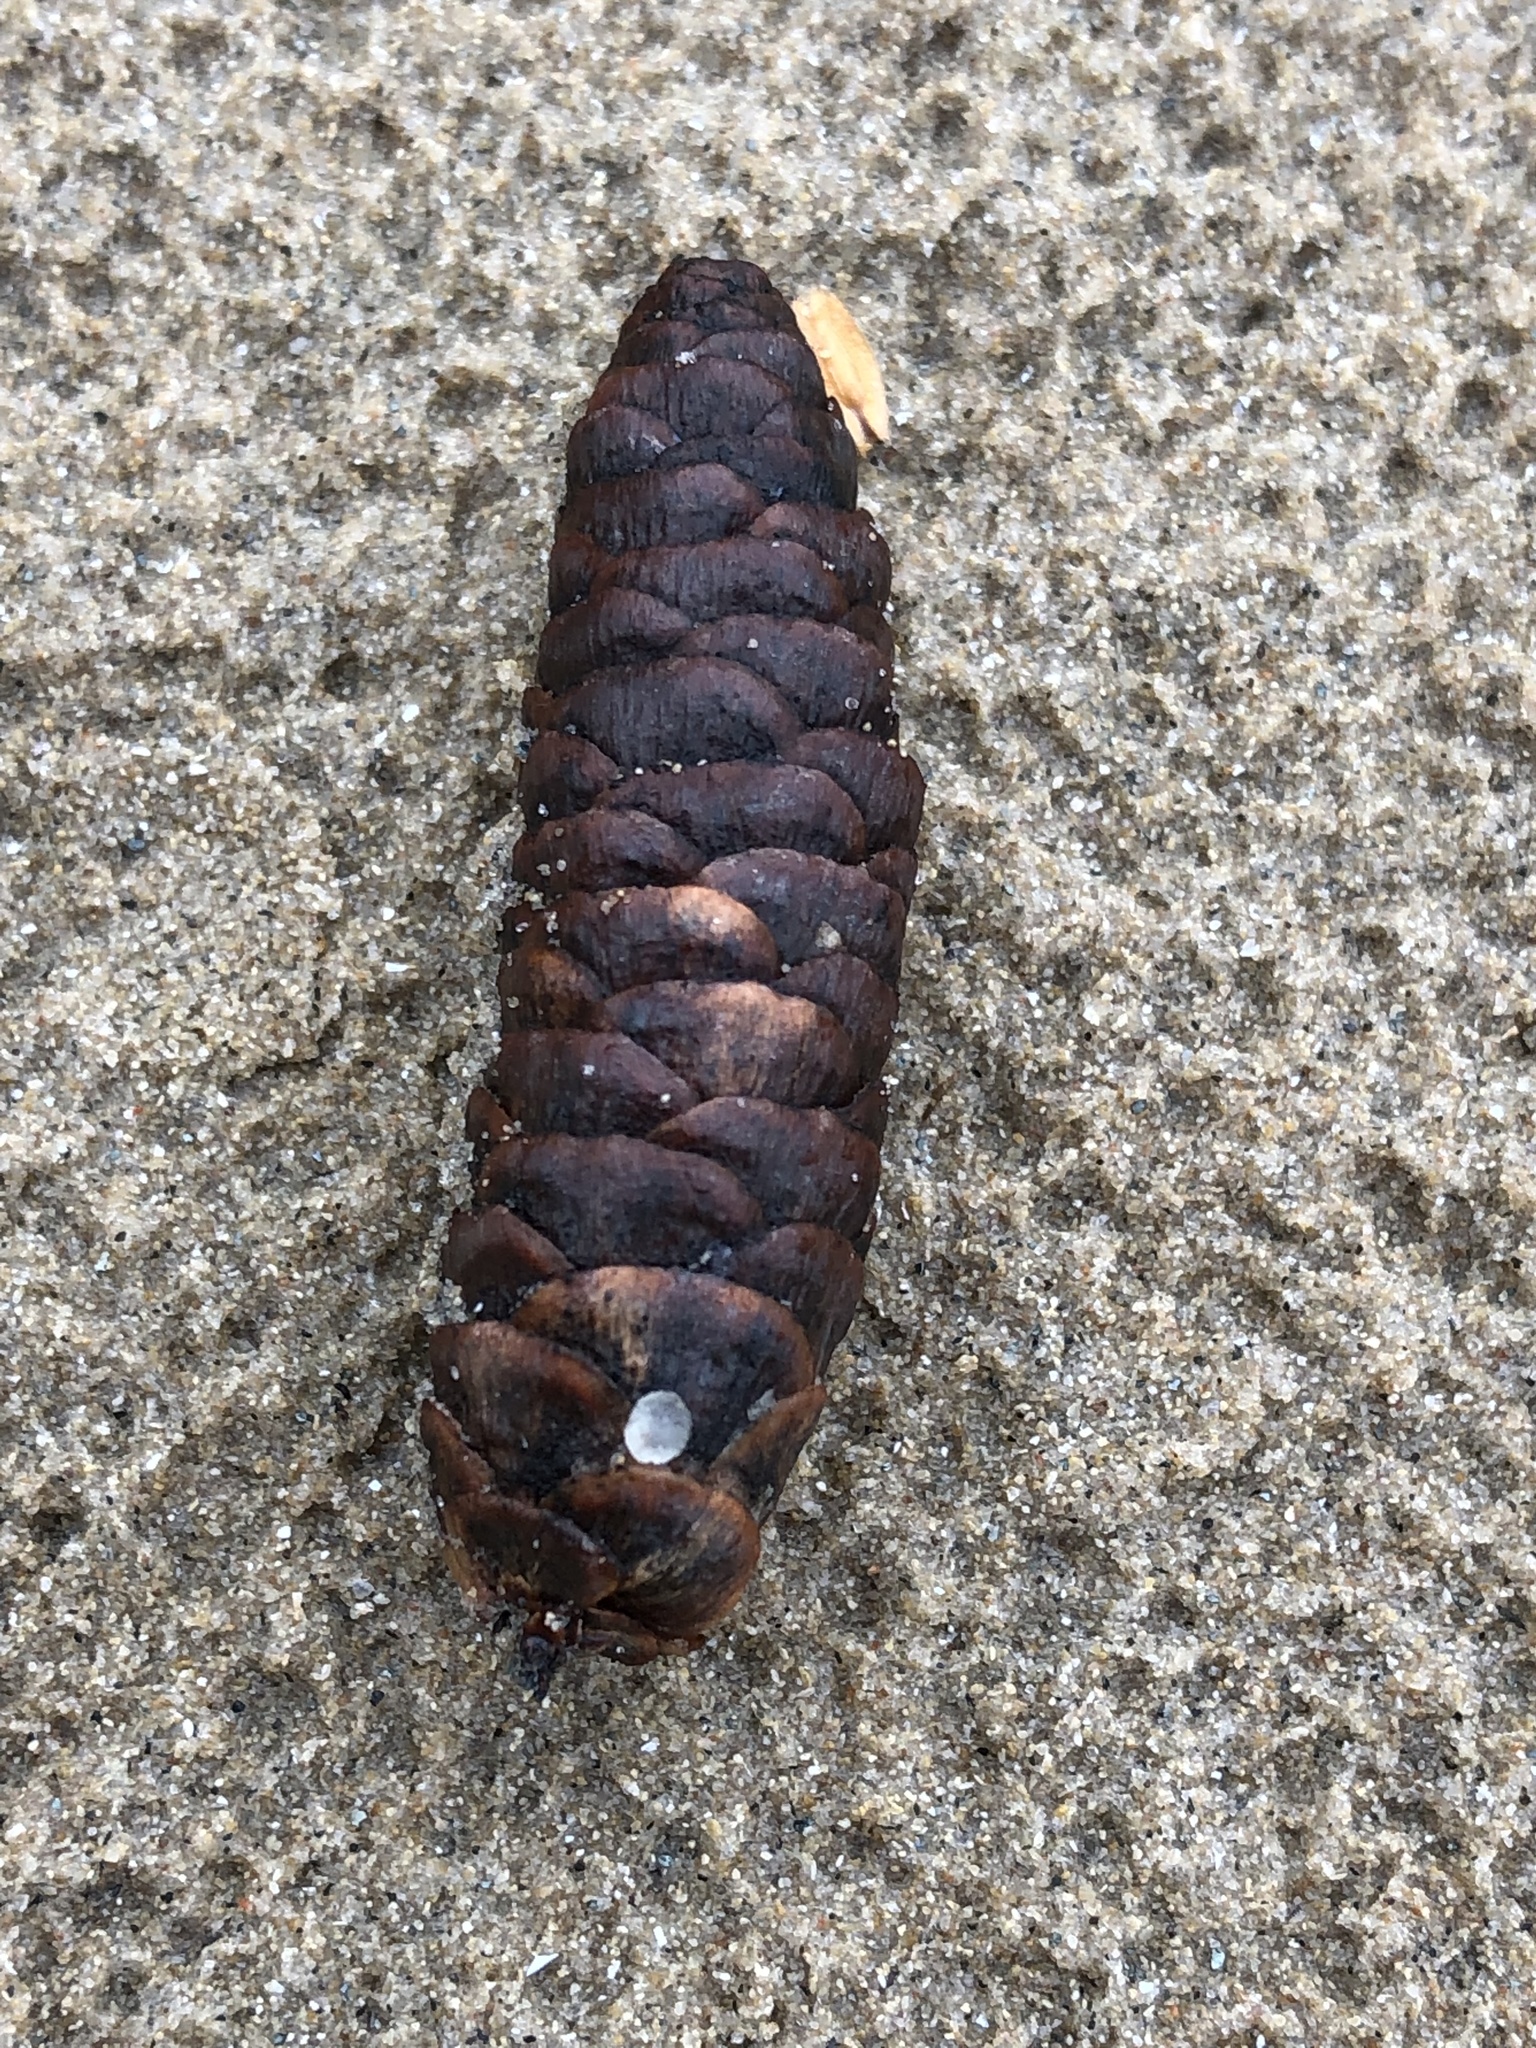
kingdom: Plantae
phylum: Tracheophyta
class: Pinopsida
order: Pinales
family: Pinaceae
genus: Picea
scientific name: Picea glauca
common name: White spruce
